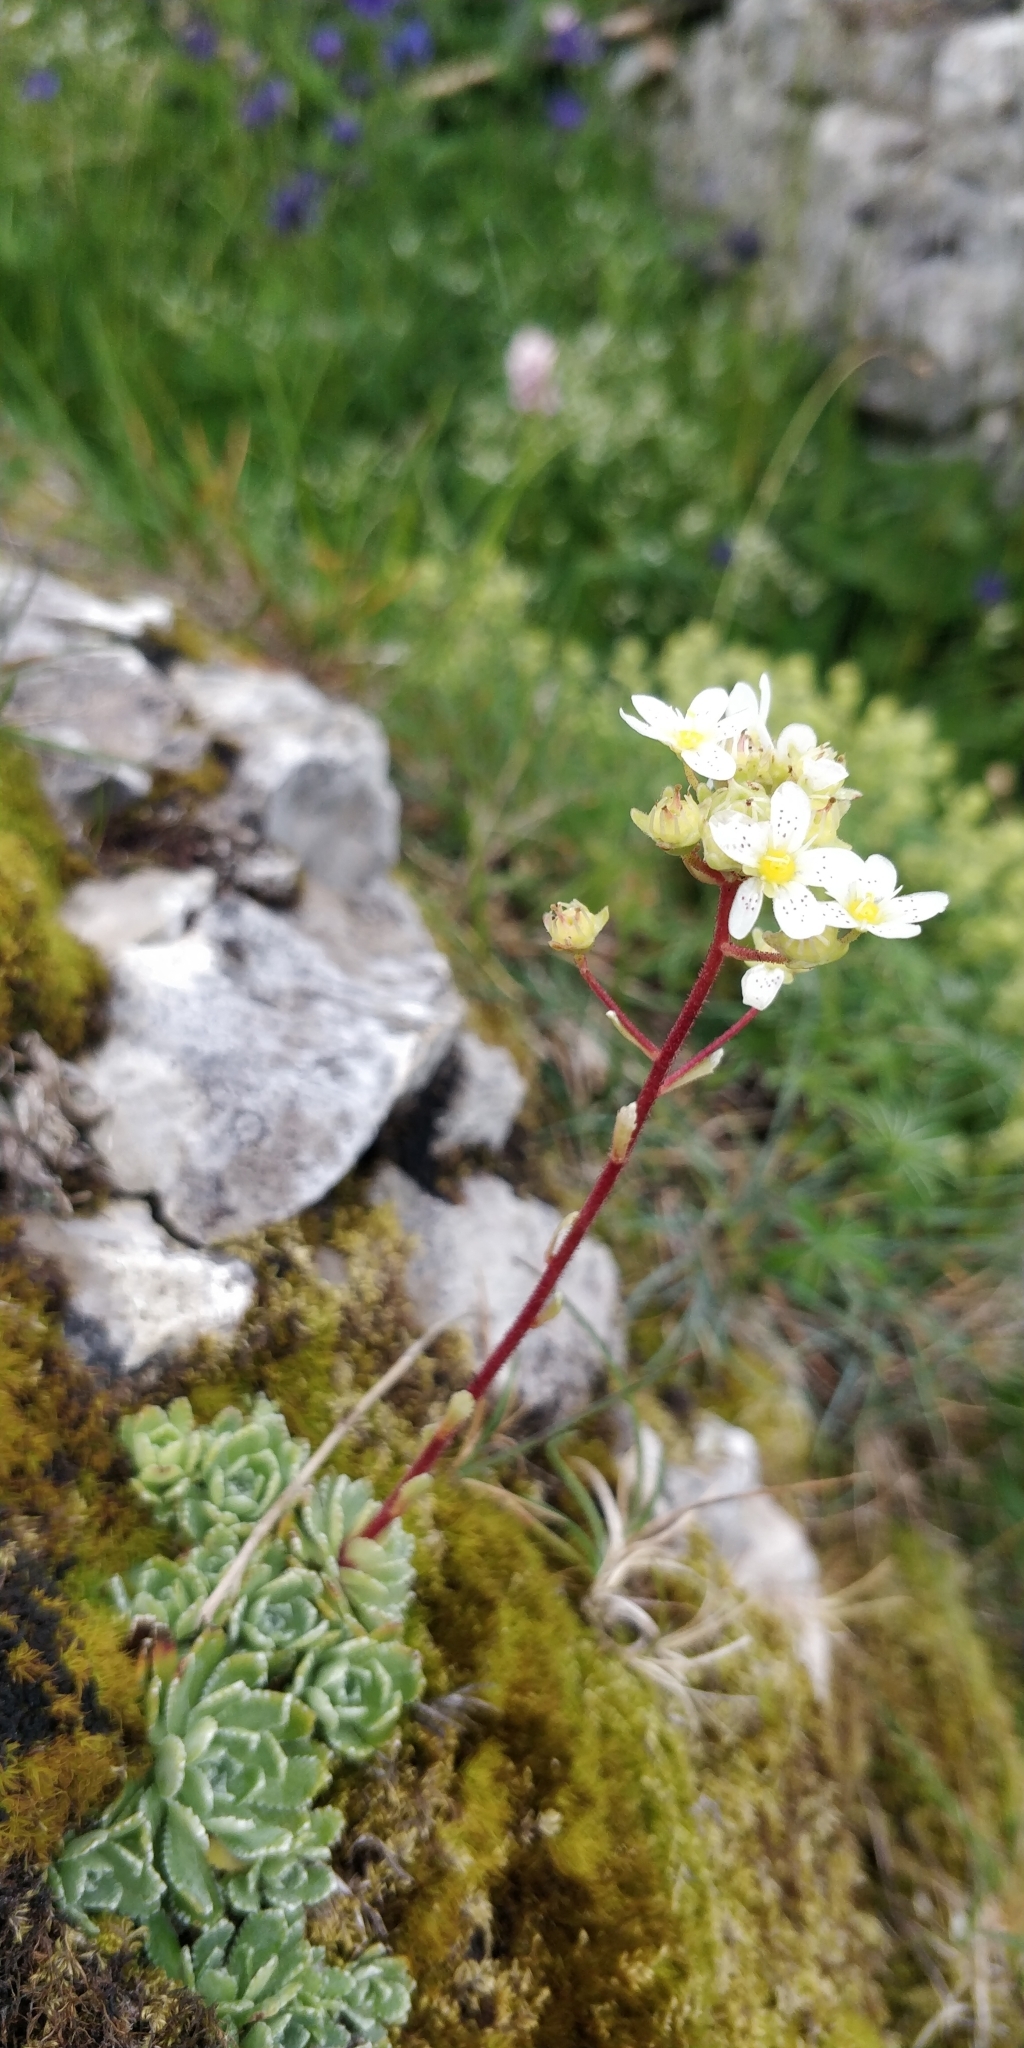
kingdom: Plantae
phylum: Tracheophyta
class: Magnoliopsida
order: Saxifragales
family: Saxifragaceae
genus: Saxifraga
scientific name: Saxifraga paniculata
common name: Livelong saxifrage
